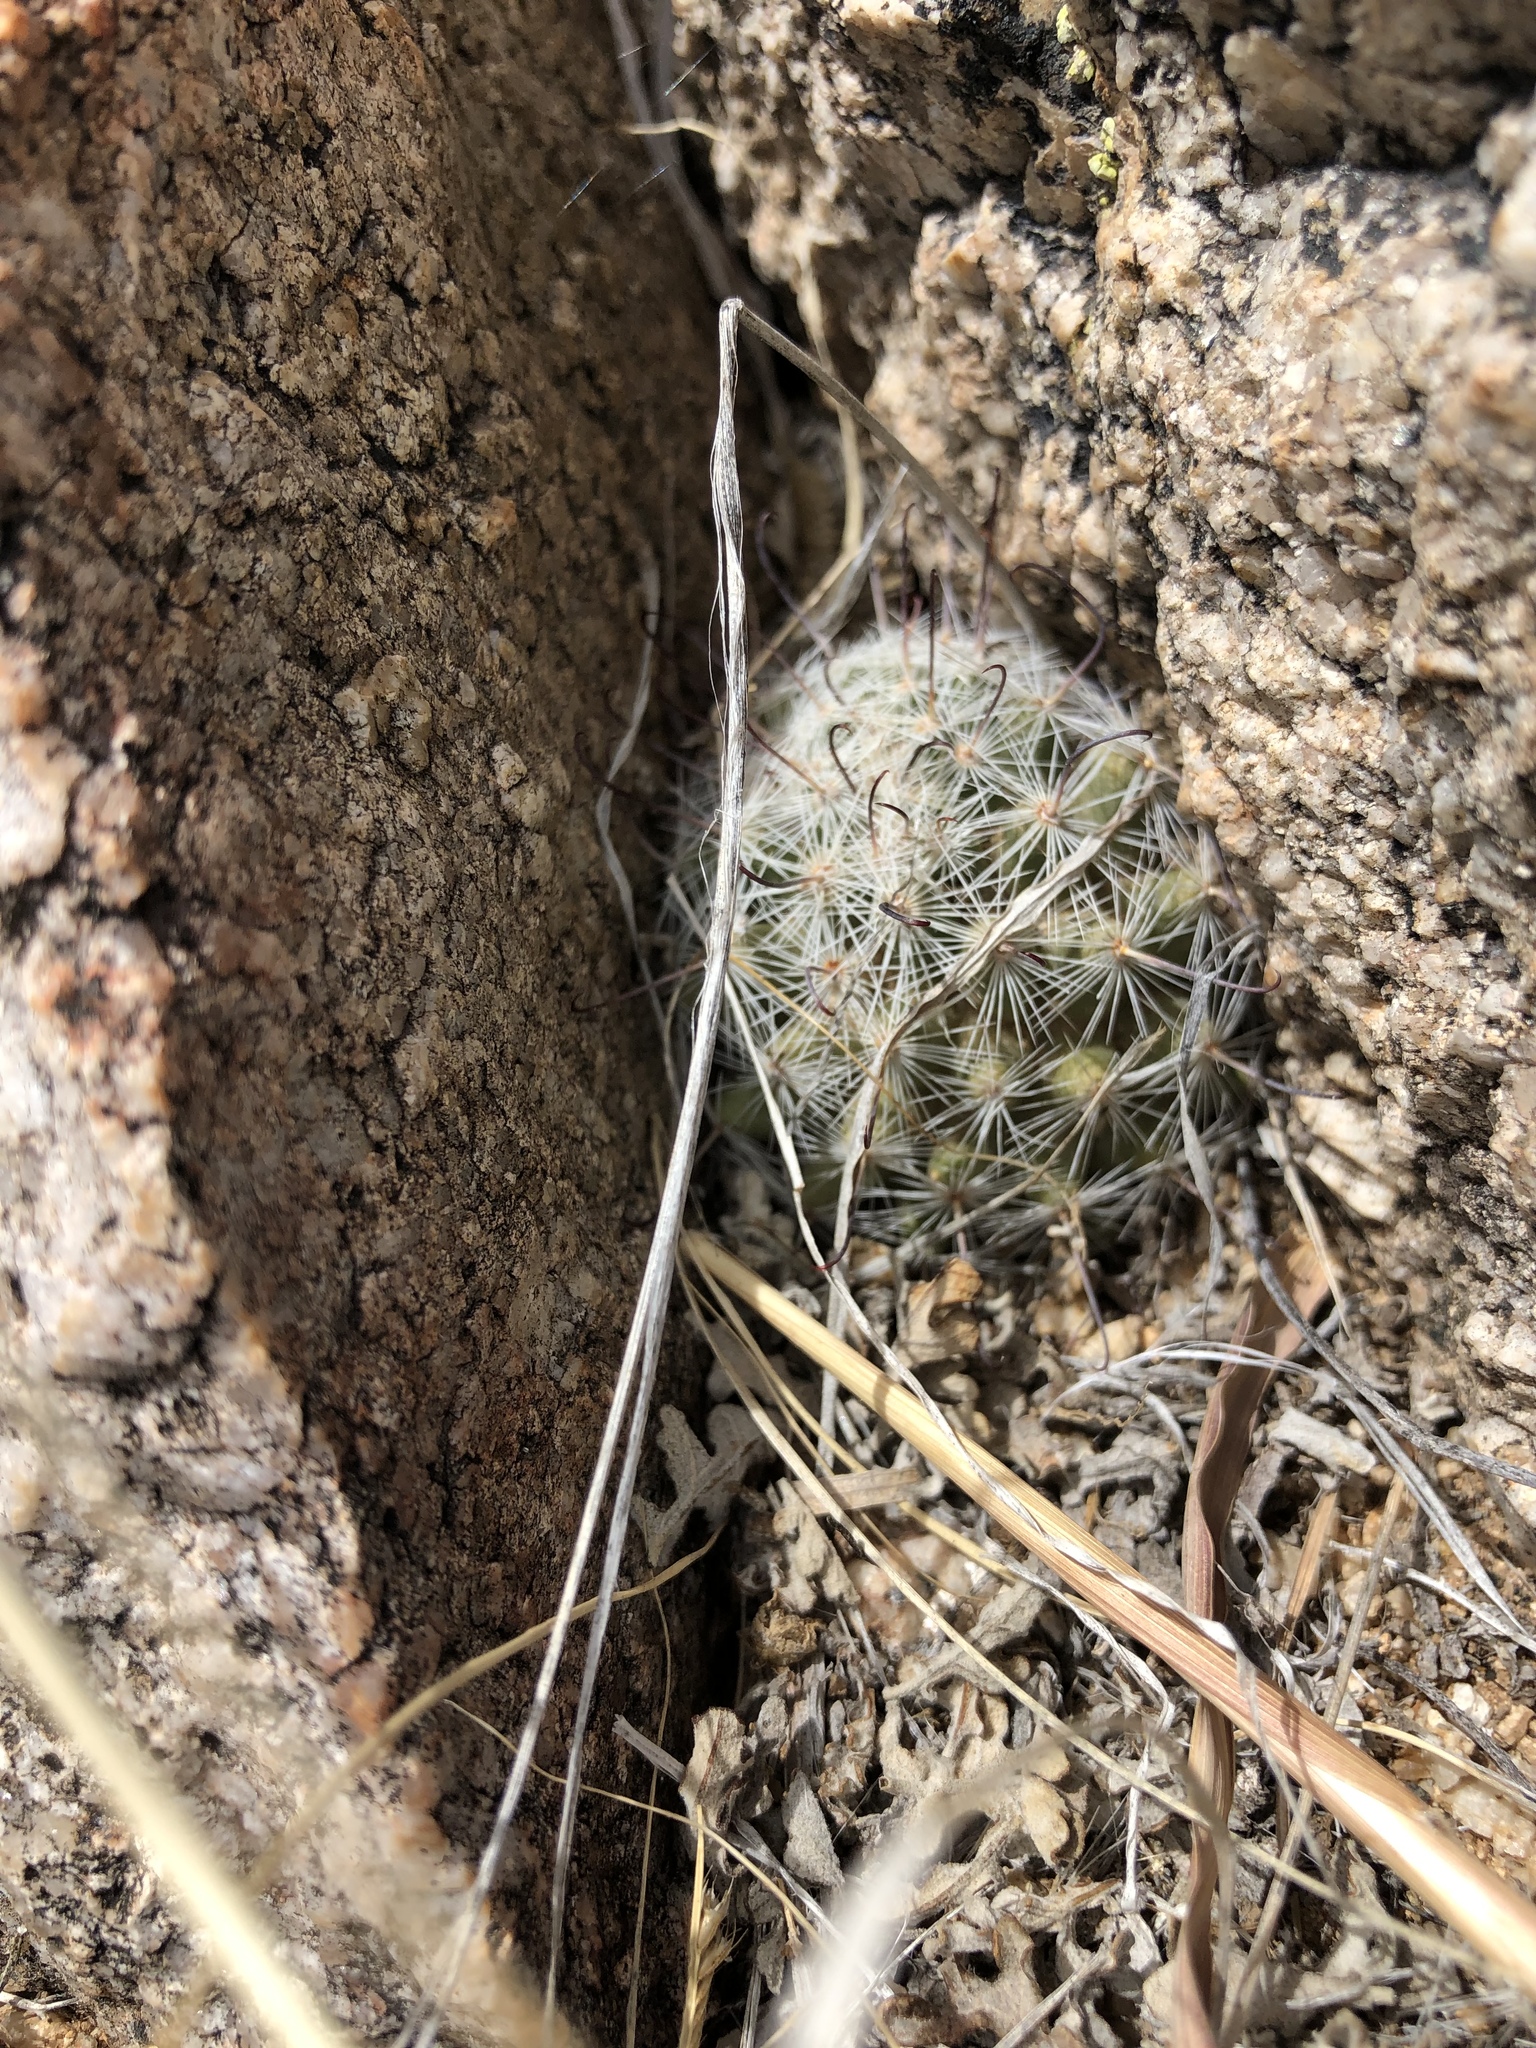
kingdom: Plantae
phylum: Tracheophyta
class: Magnoliopsida
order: Caryophyllales
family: Cactaceae
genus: Cochemiea
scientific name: Cochemiea grahamii
